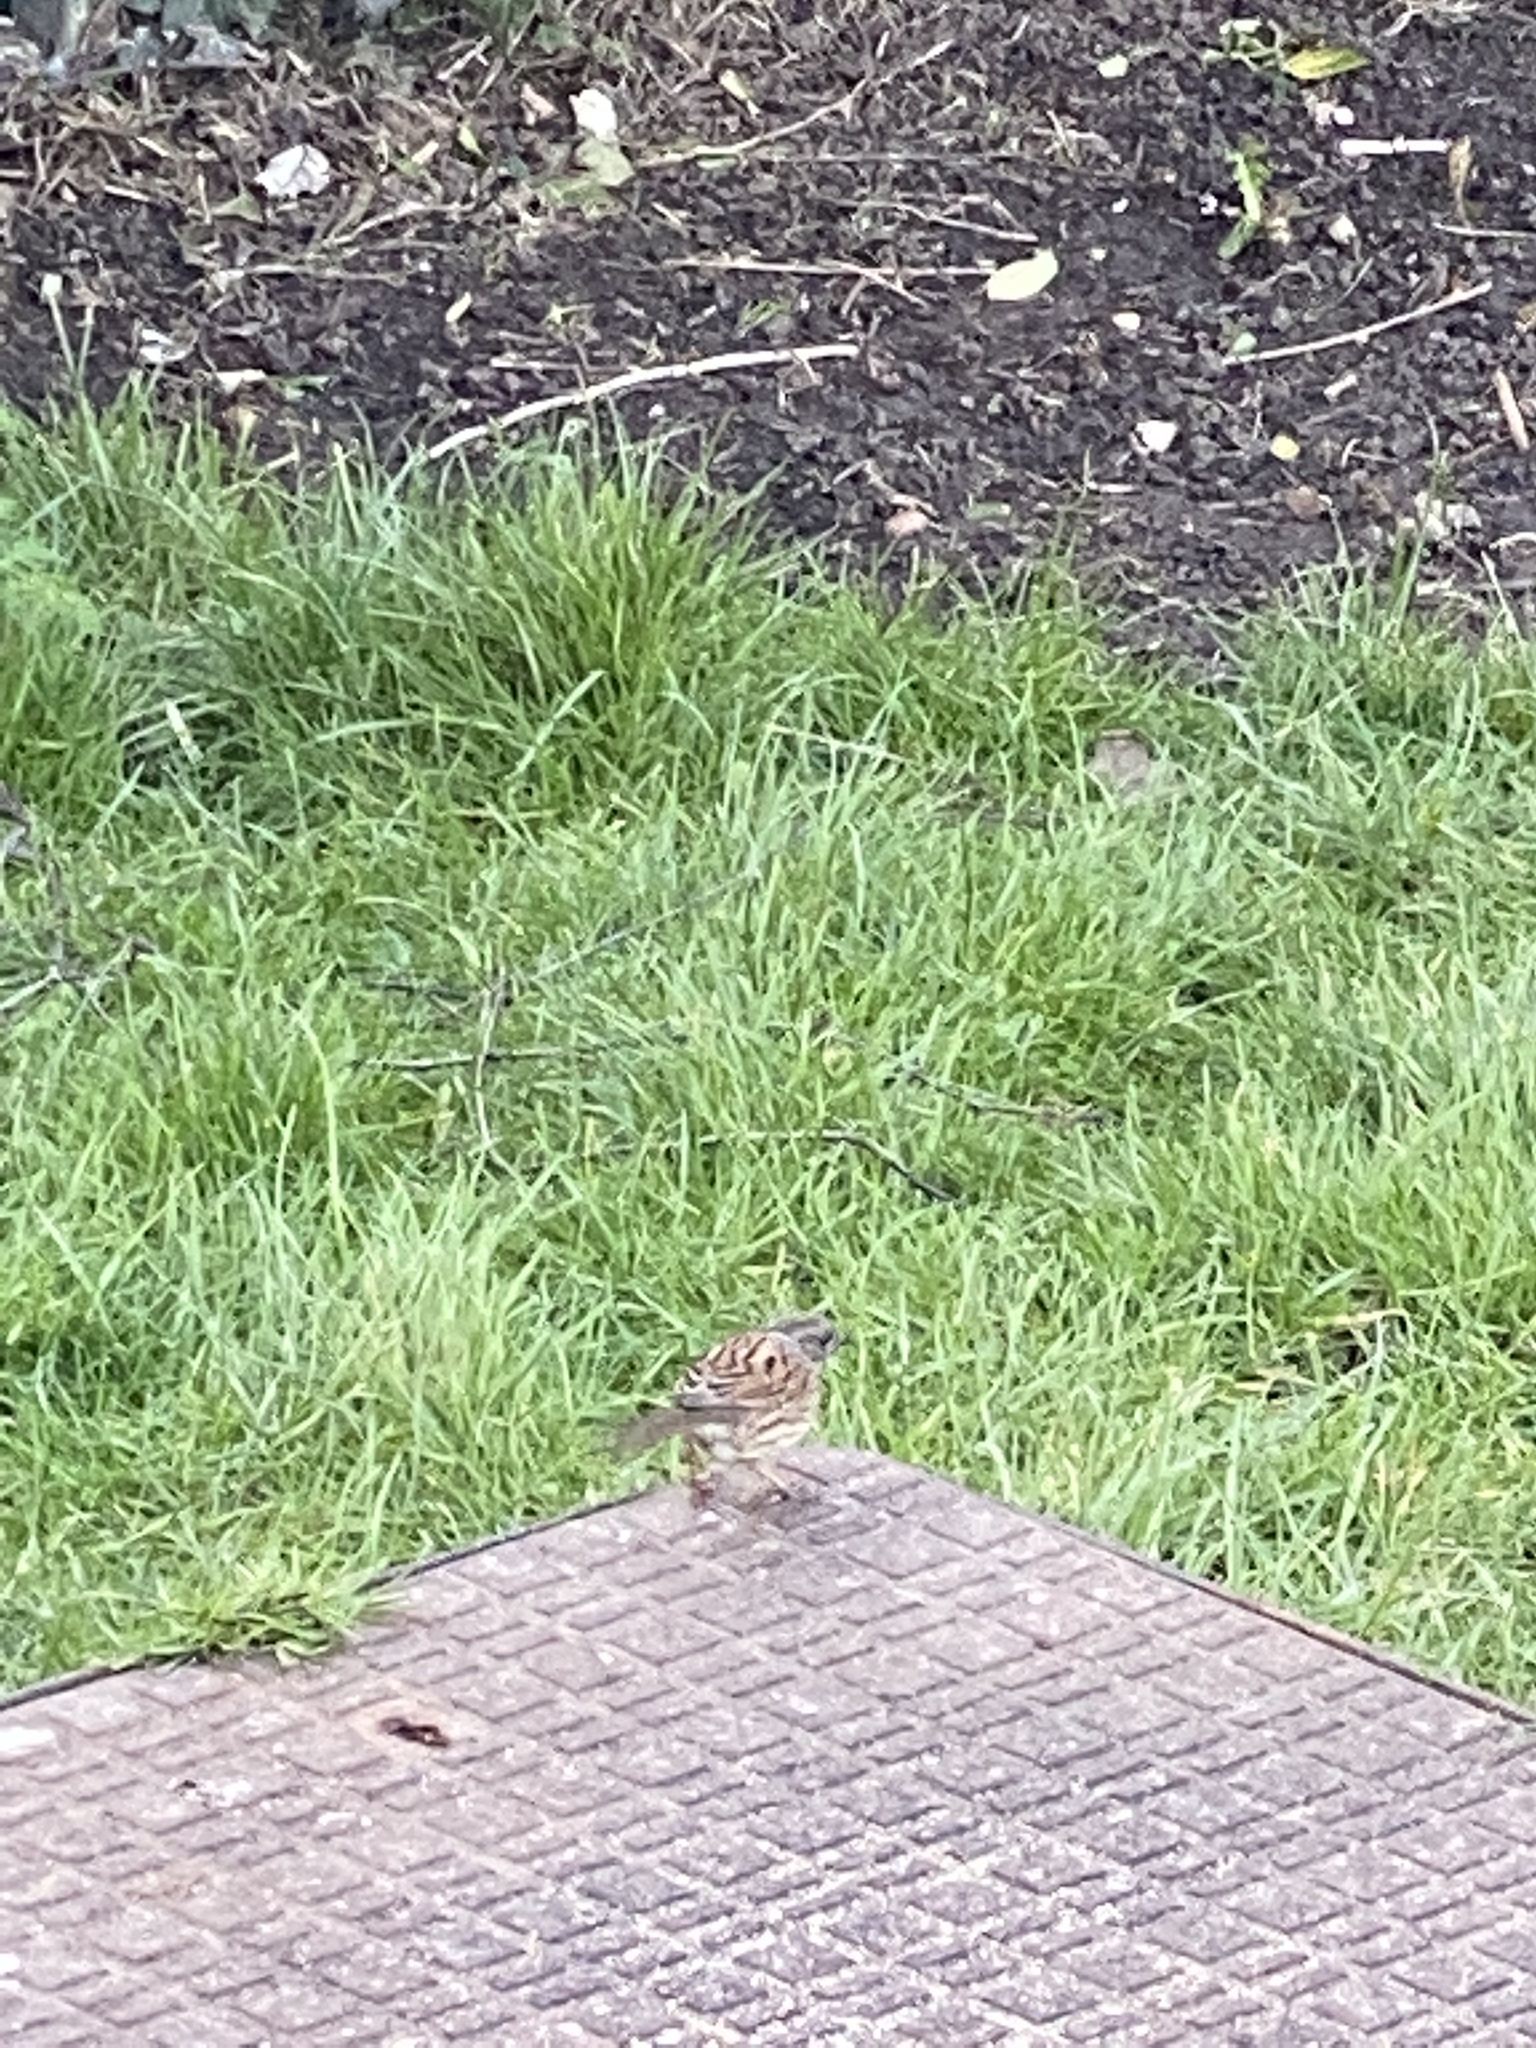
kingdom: Animalia
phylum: Chordata
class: Aves
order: Passeriformes
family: Prunellidae
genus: Prunella
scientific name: Prunella modularis
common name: Dunnock
